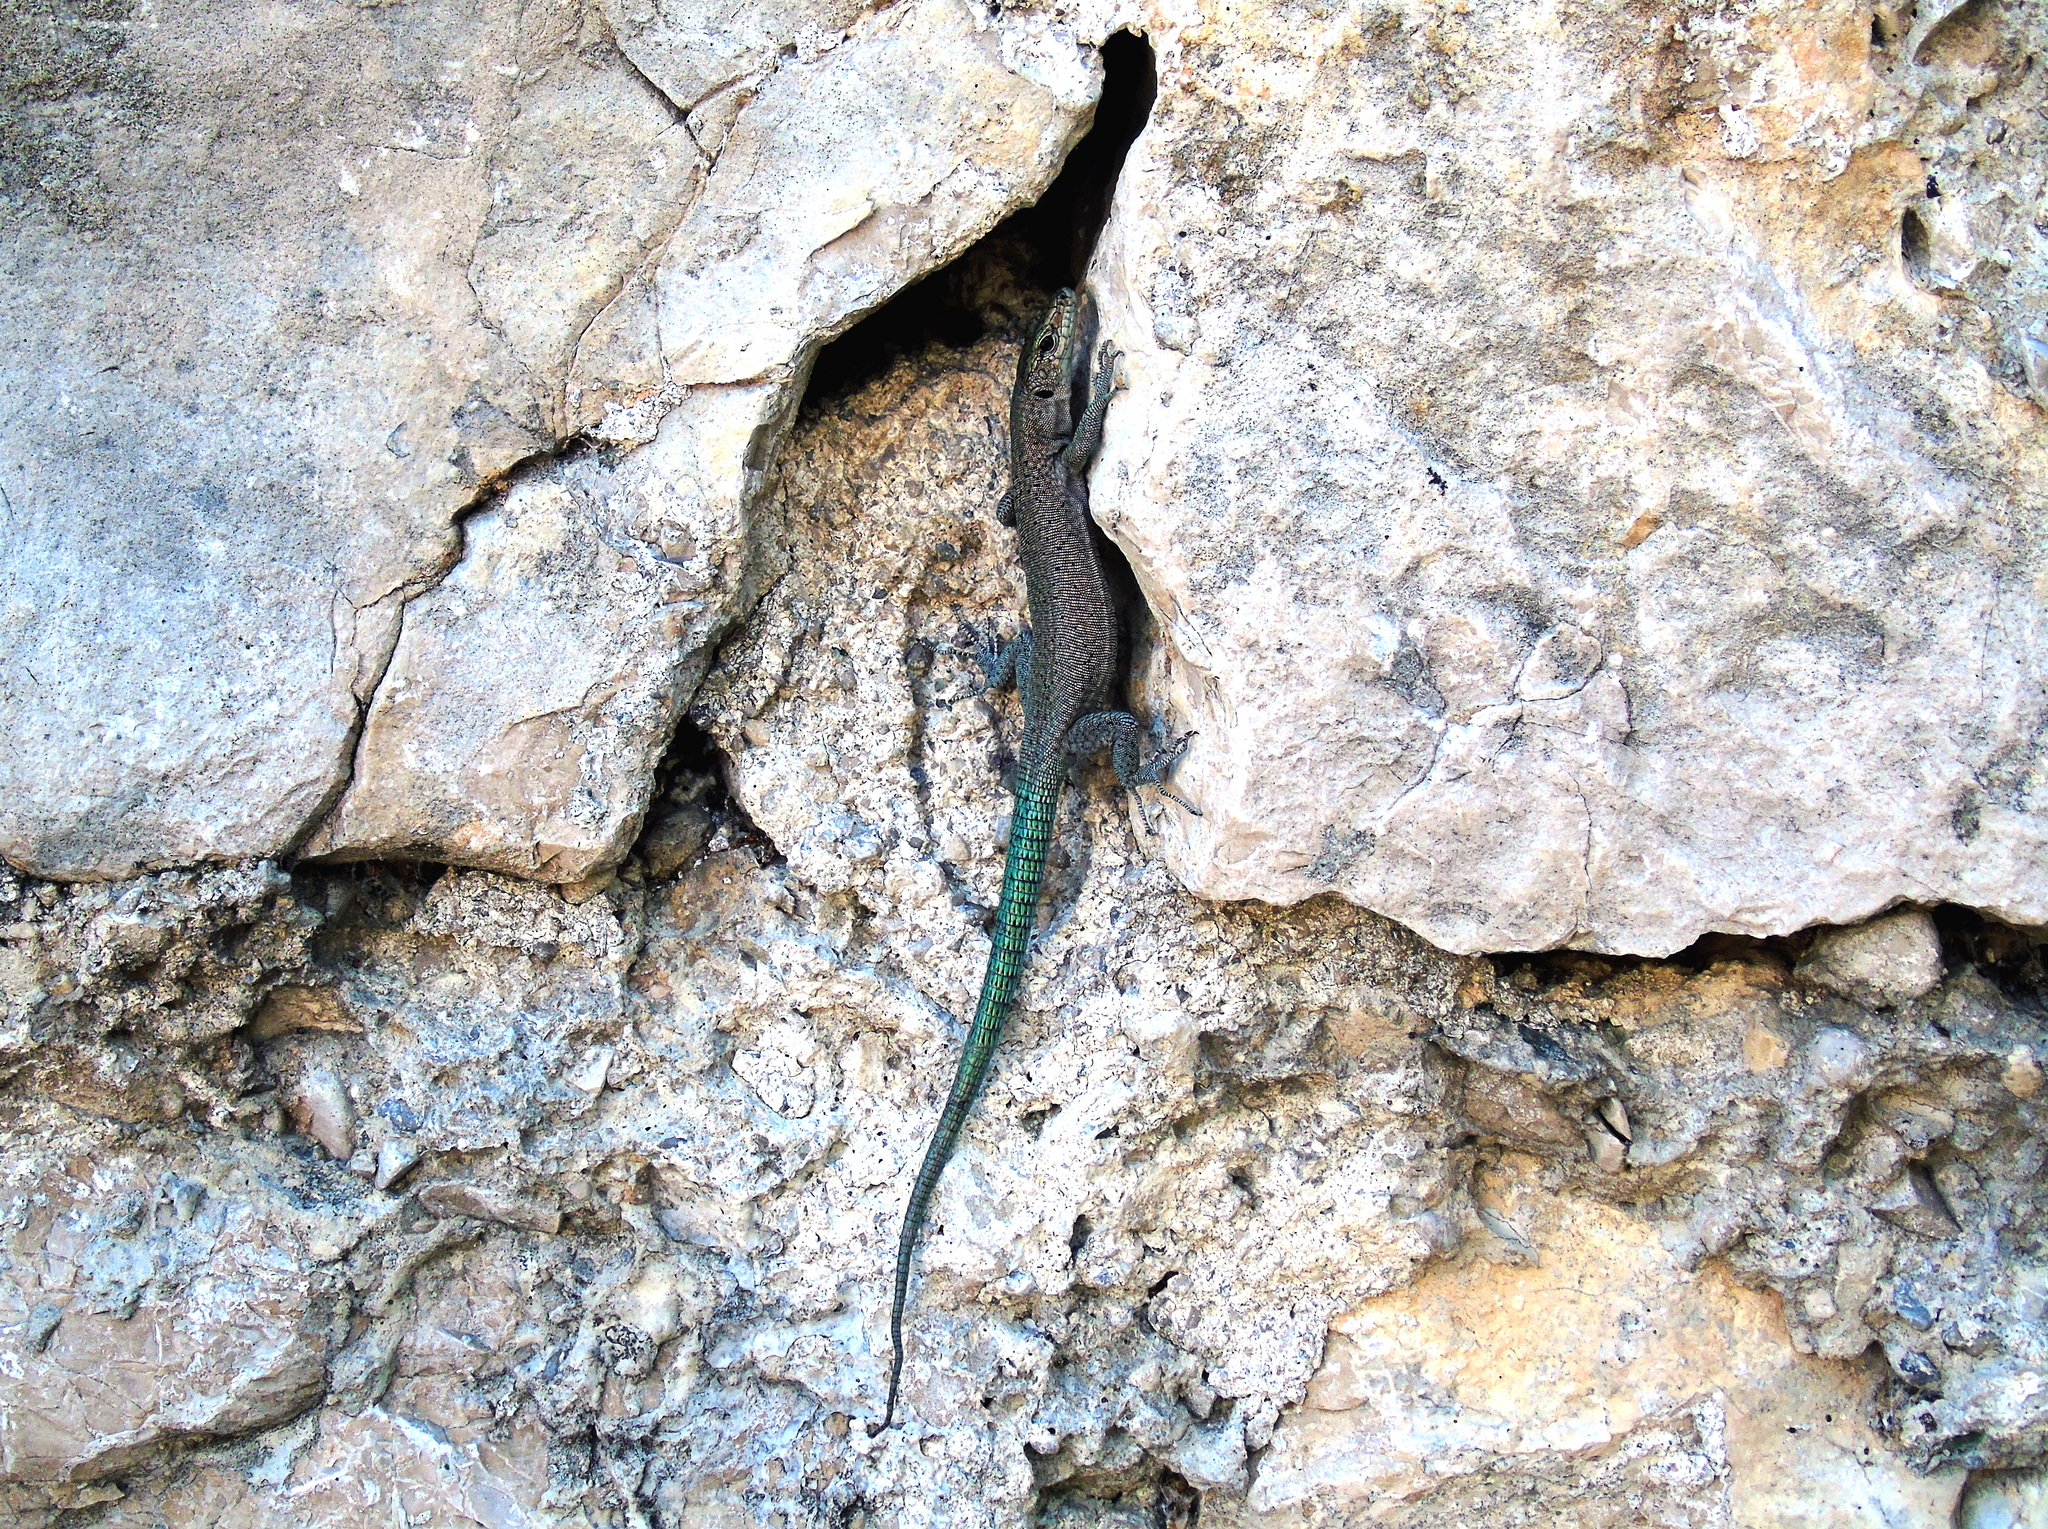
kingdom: Animalia
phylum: Chordata
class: Squamata
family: Lacertidae
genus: Dalmatolacerta
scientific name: Dalmatolacerta oxycephala
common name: Sharp-snouted rock lizard
